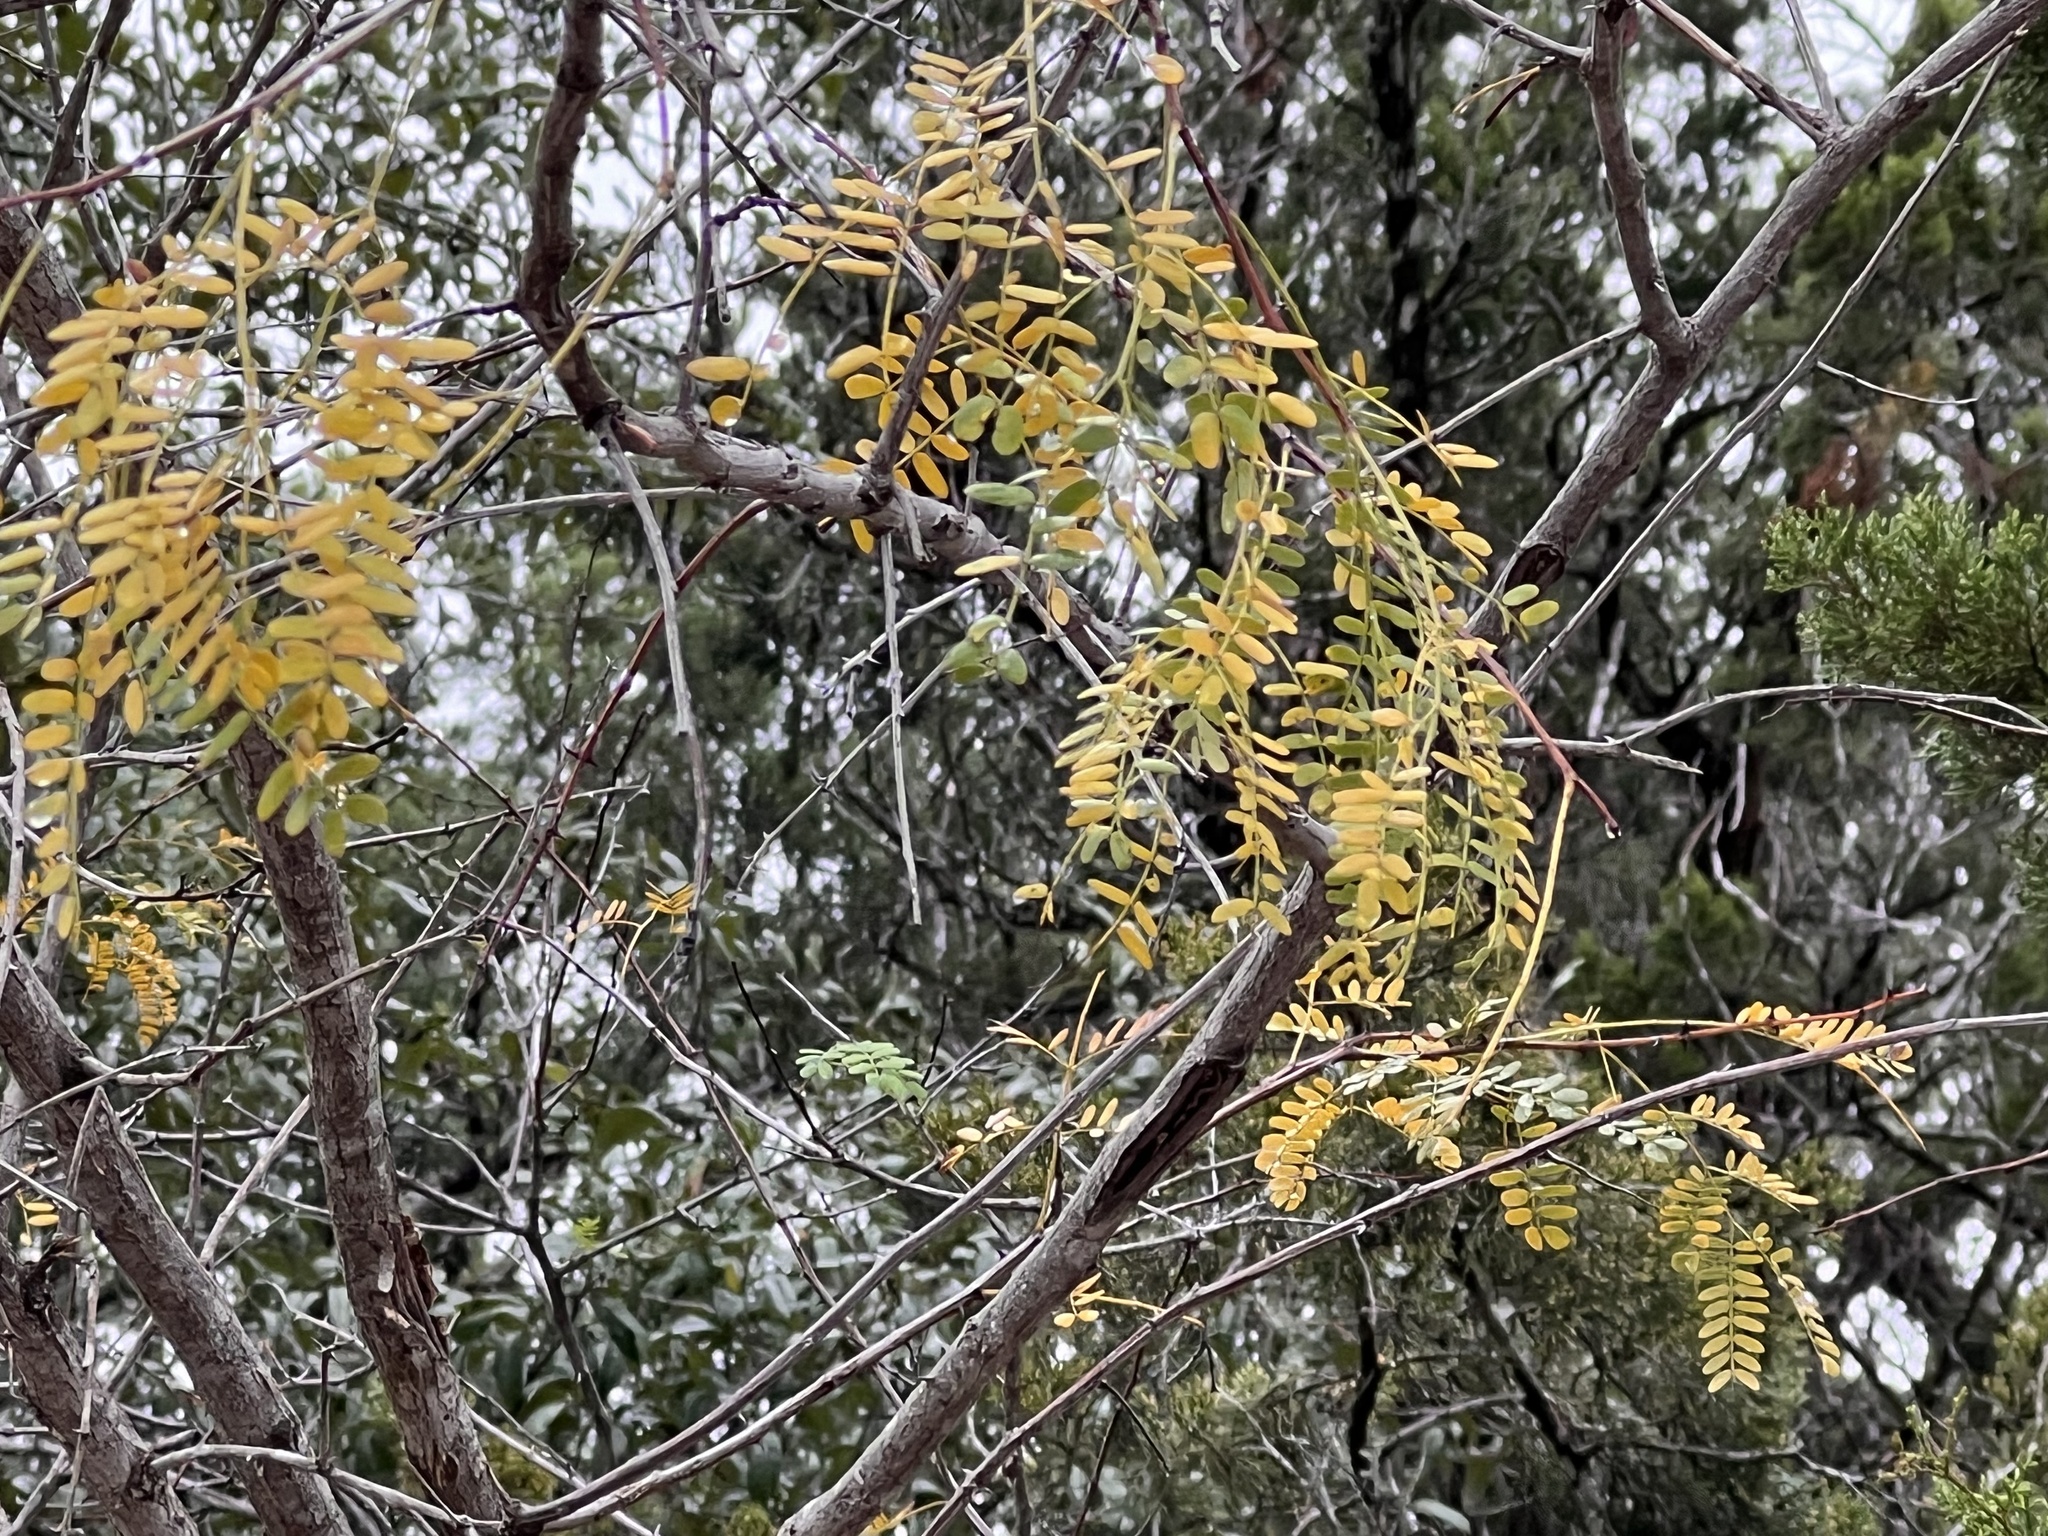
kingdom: Plantae
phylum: Tracheophyta
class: Magnoliopsida
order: Fabales
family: Fabaceae
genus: Sesbania
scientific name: Sesbania drummondii
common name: Poison-bean
